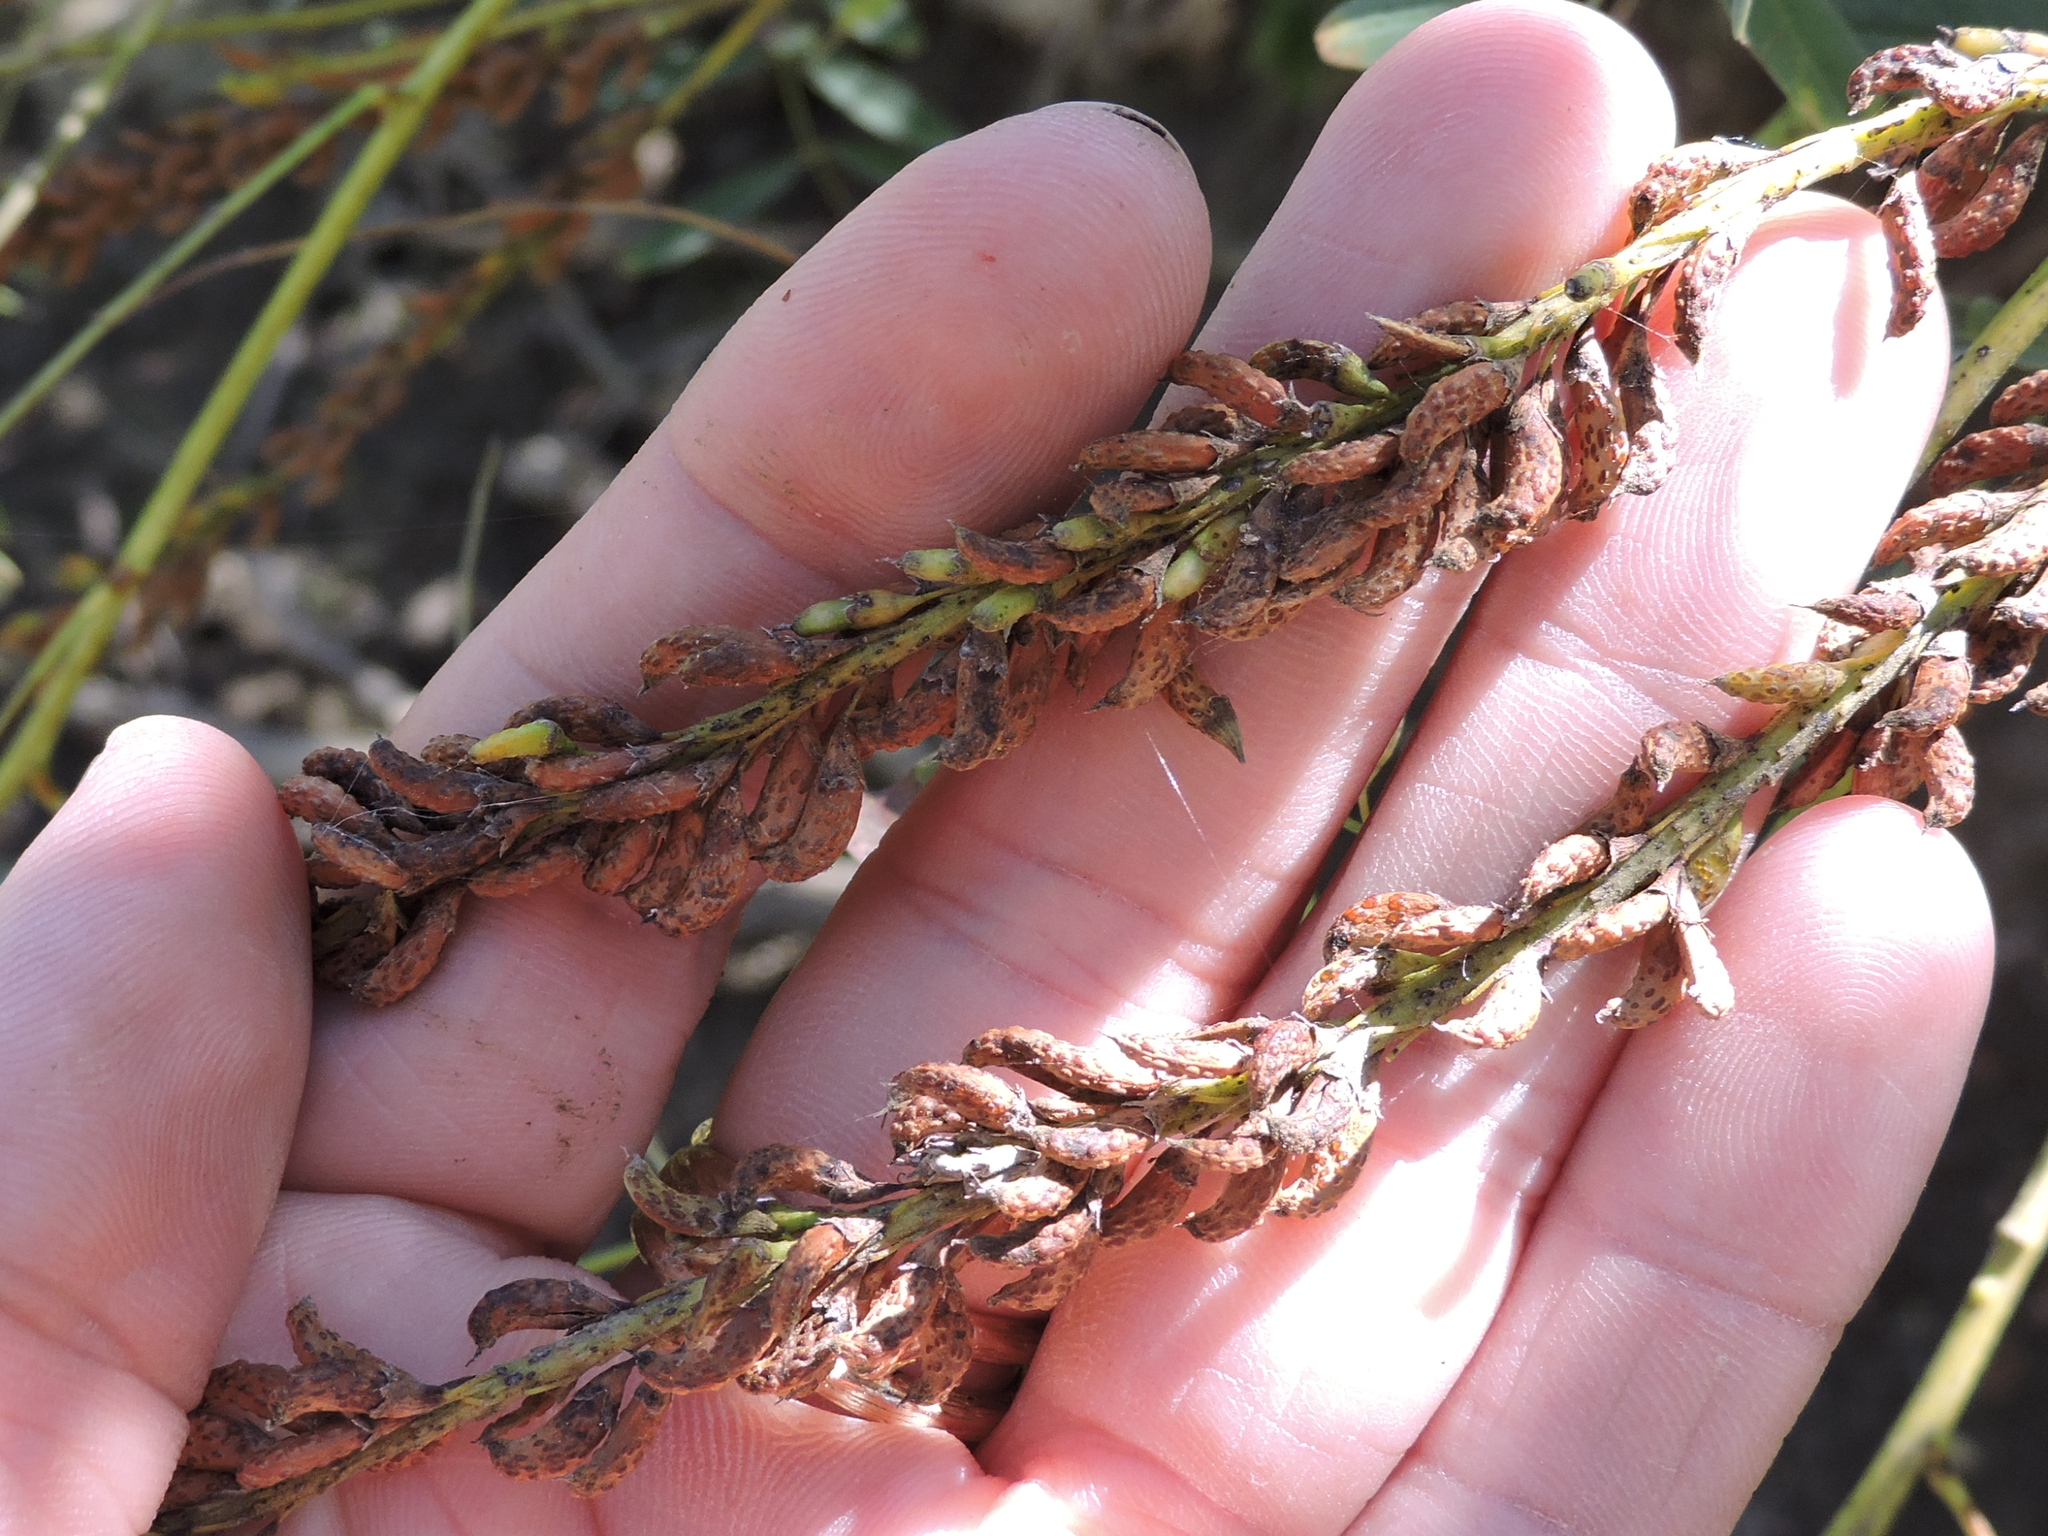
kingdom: Plantae
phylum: Tracheophyta
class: Magnoliopsida
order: Fabales
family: Fabaceae
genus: Amorpha
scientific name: Amorpha fruticosa
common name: False indigo
